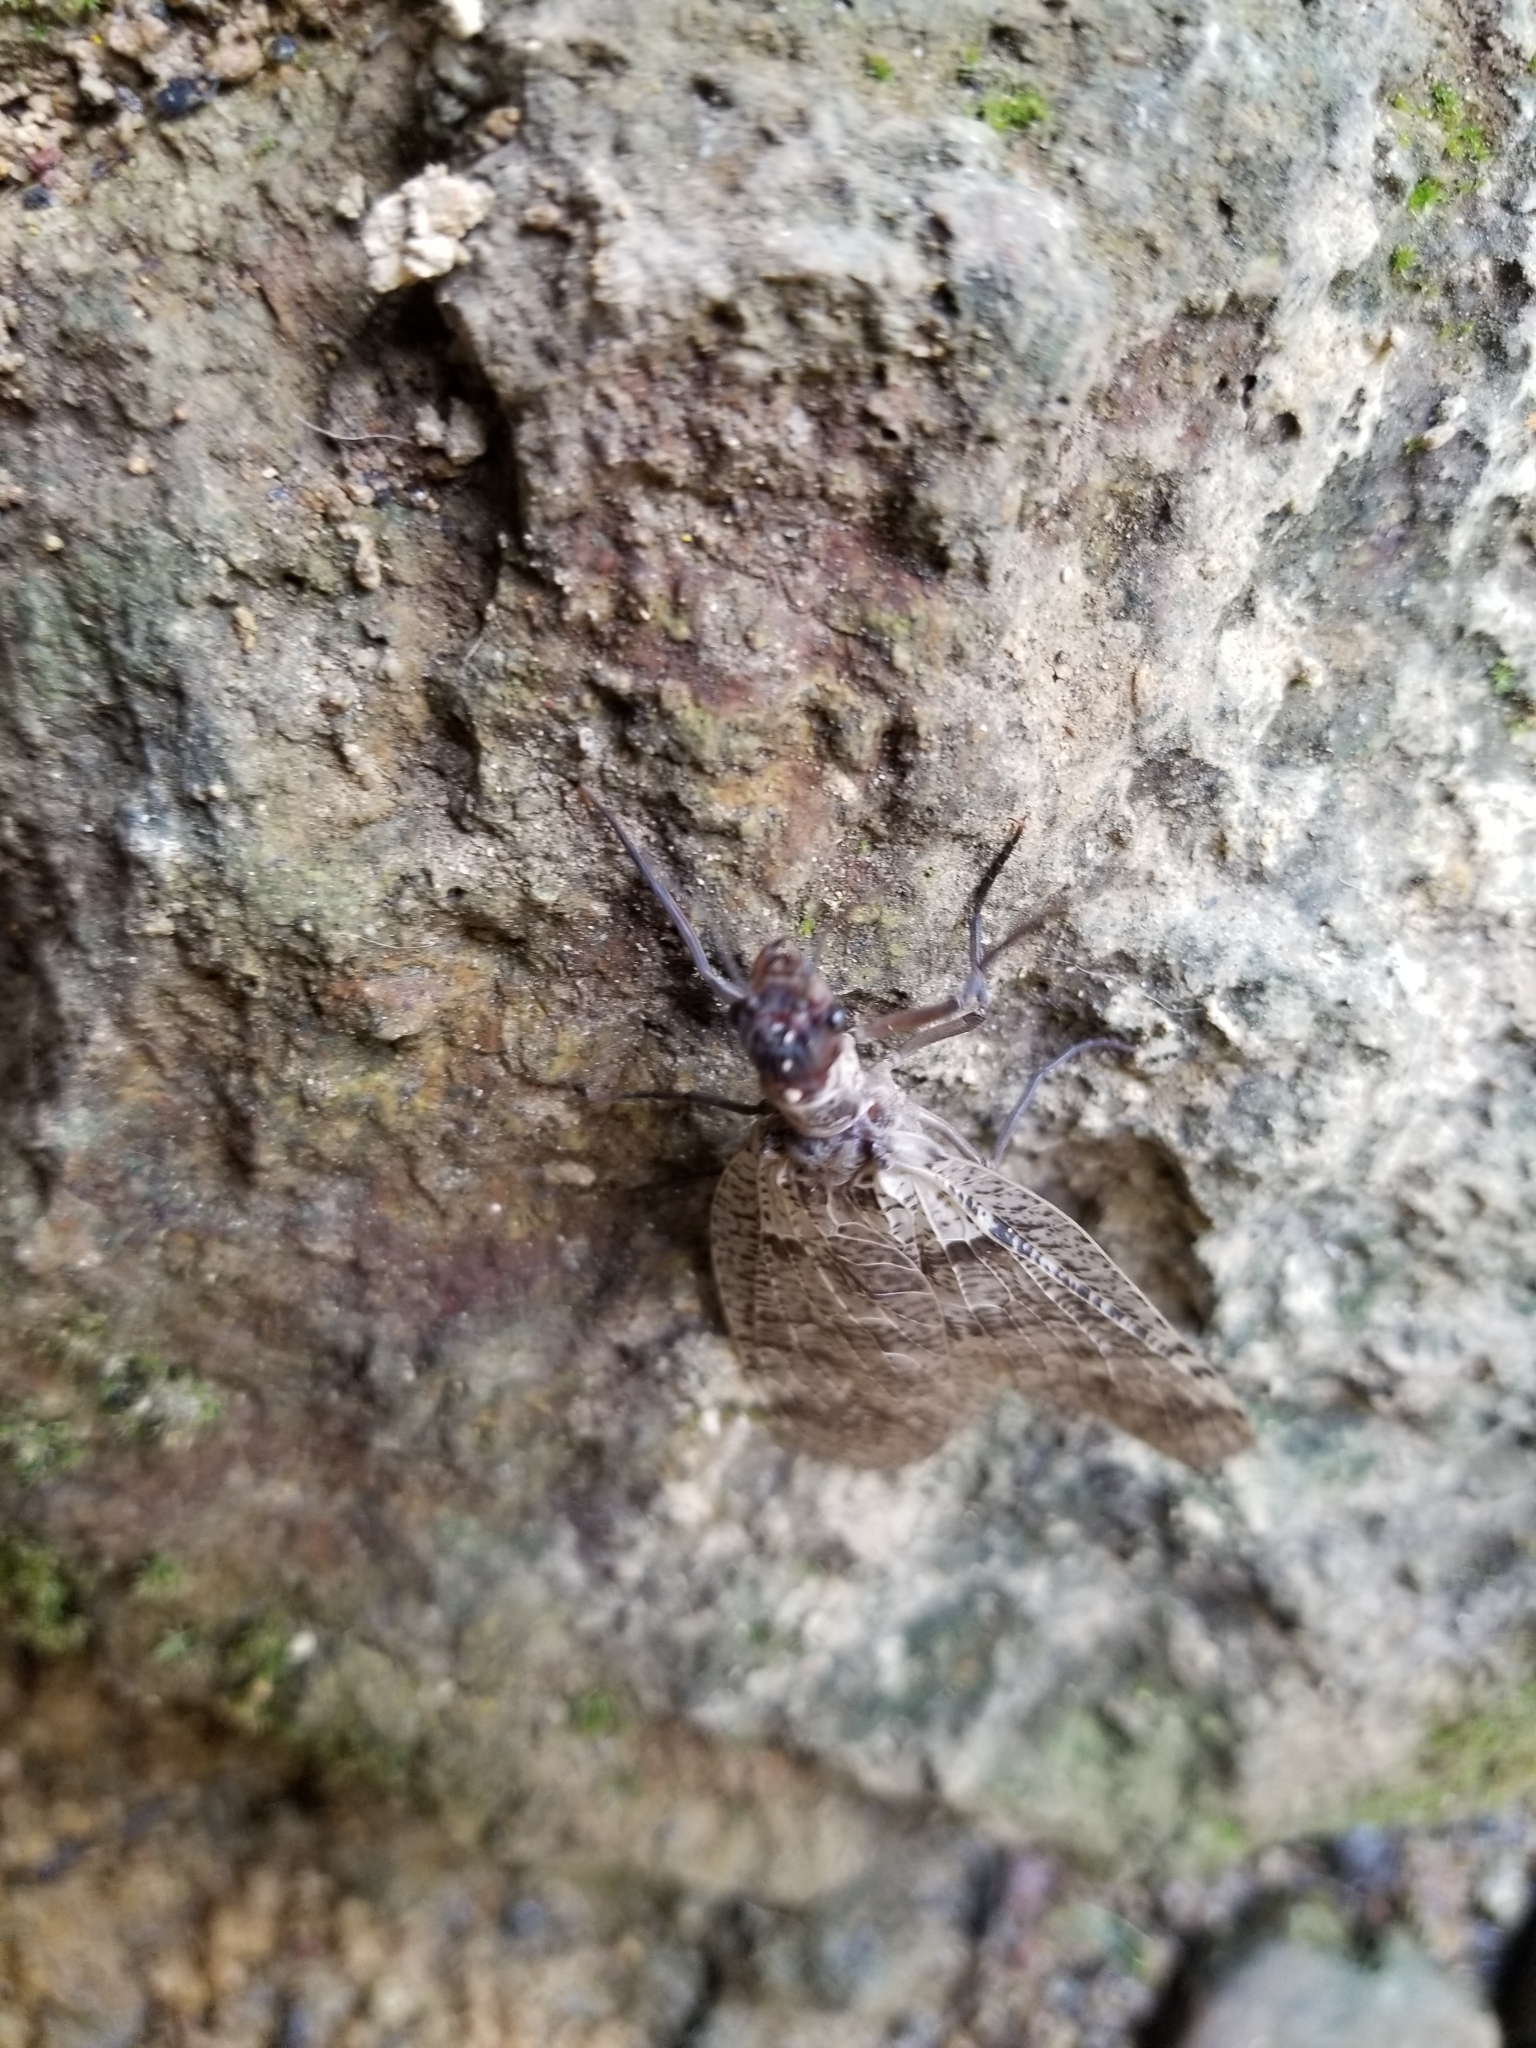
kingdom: Animalia
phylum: Arthropoda
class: Insecta
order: Megaloptera
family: Corydalidae
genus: Orohermes
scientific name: Orohermes crepusculus
